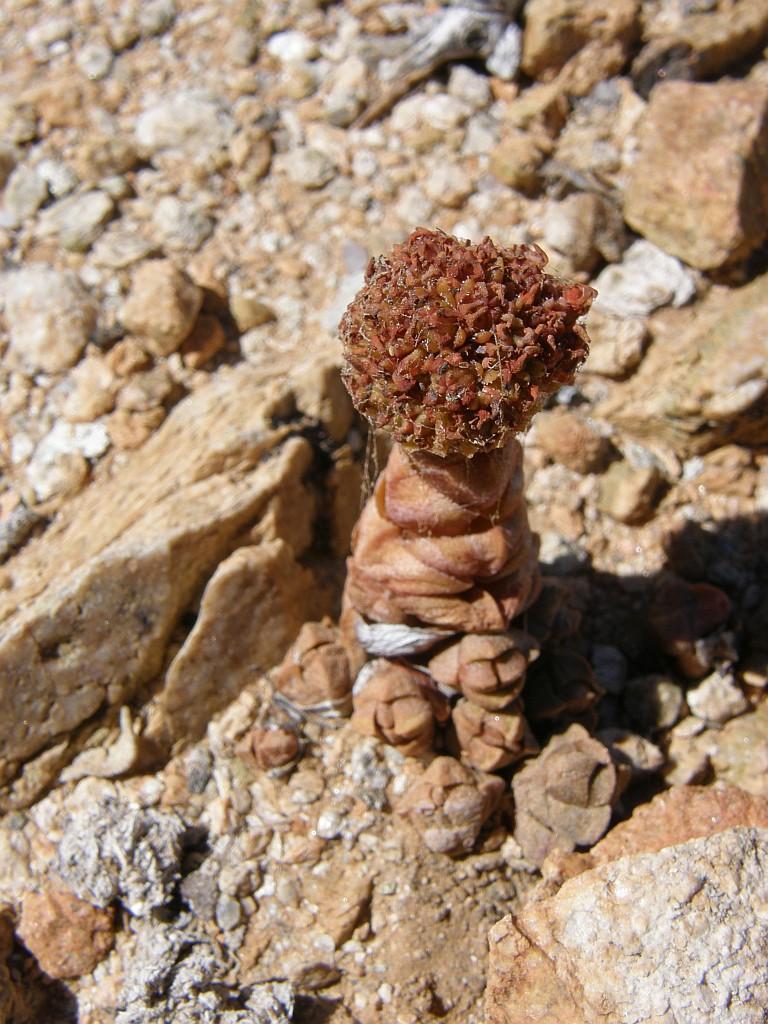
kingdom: Plantae
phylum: Tracheophyta
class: Magnoliopsida
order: Saxifragales
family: Crassulaceae
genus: Crassula
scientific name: Crassula columnaris
